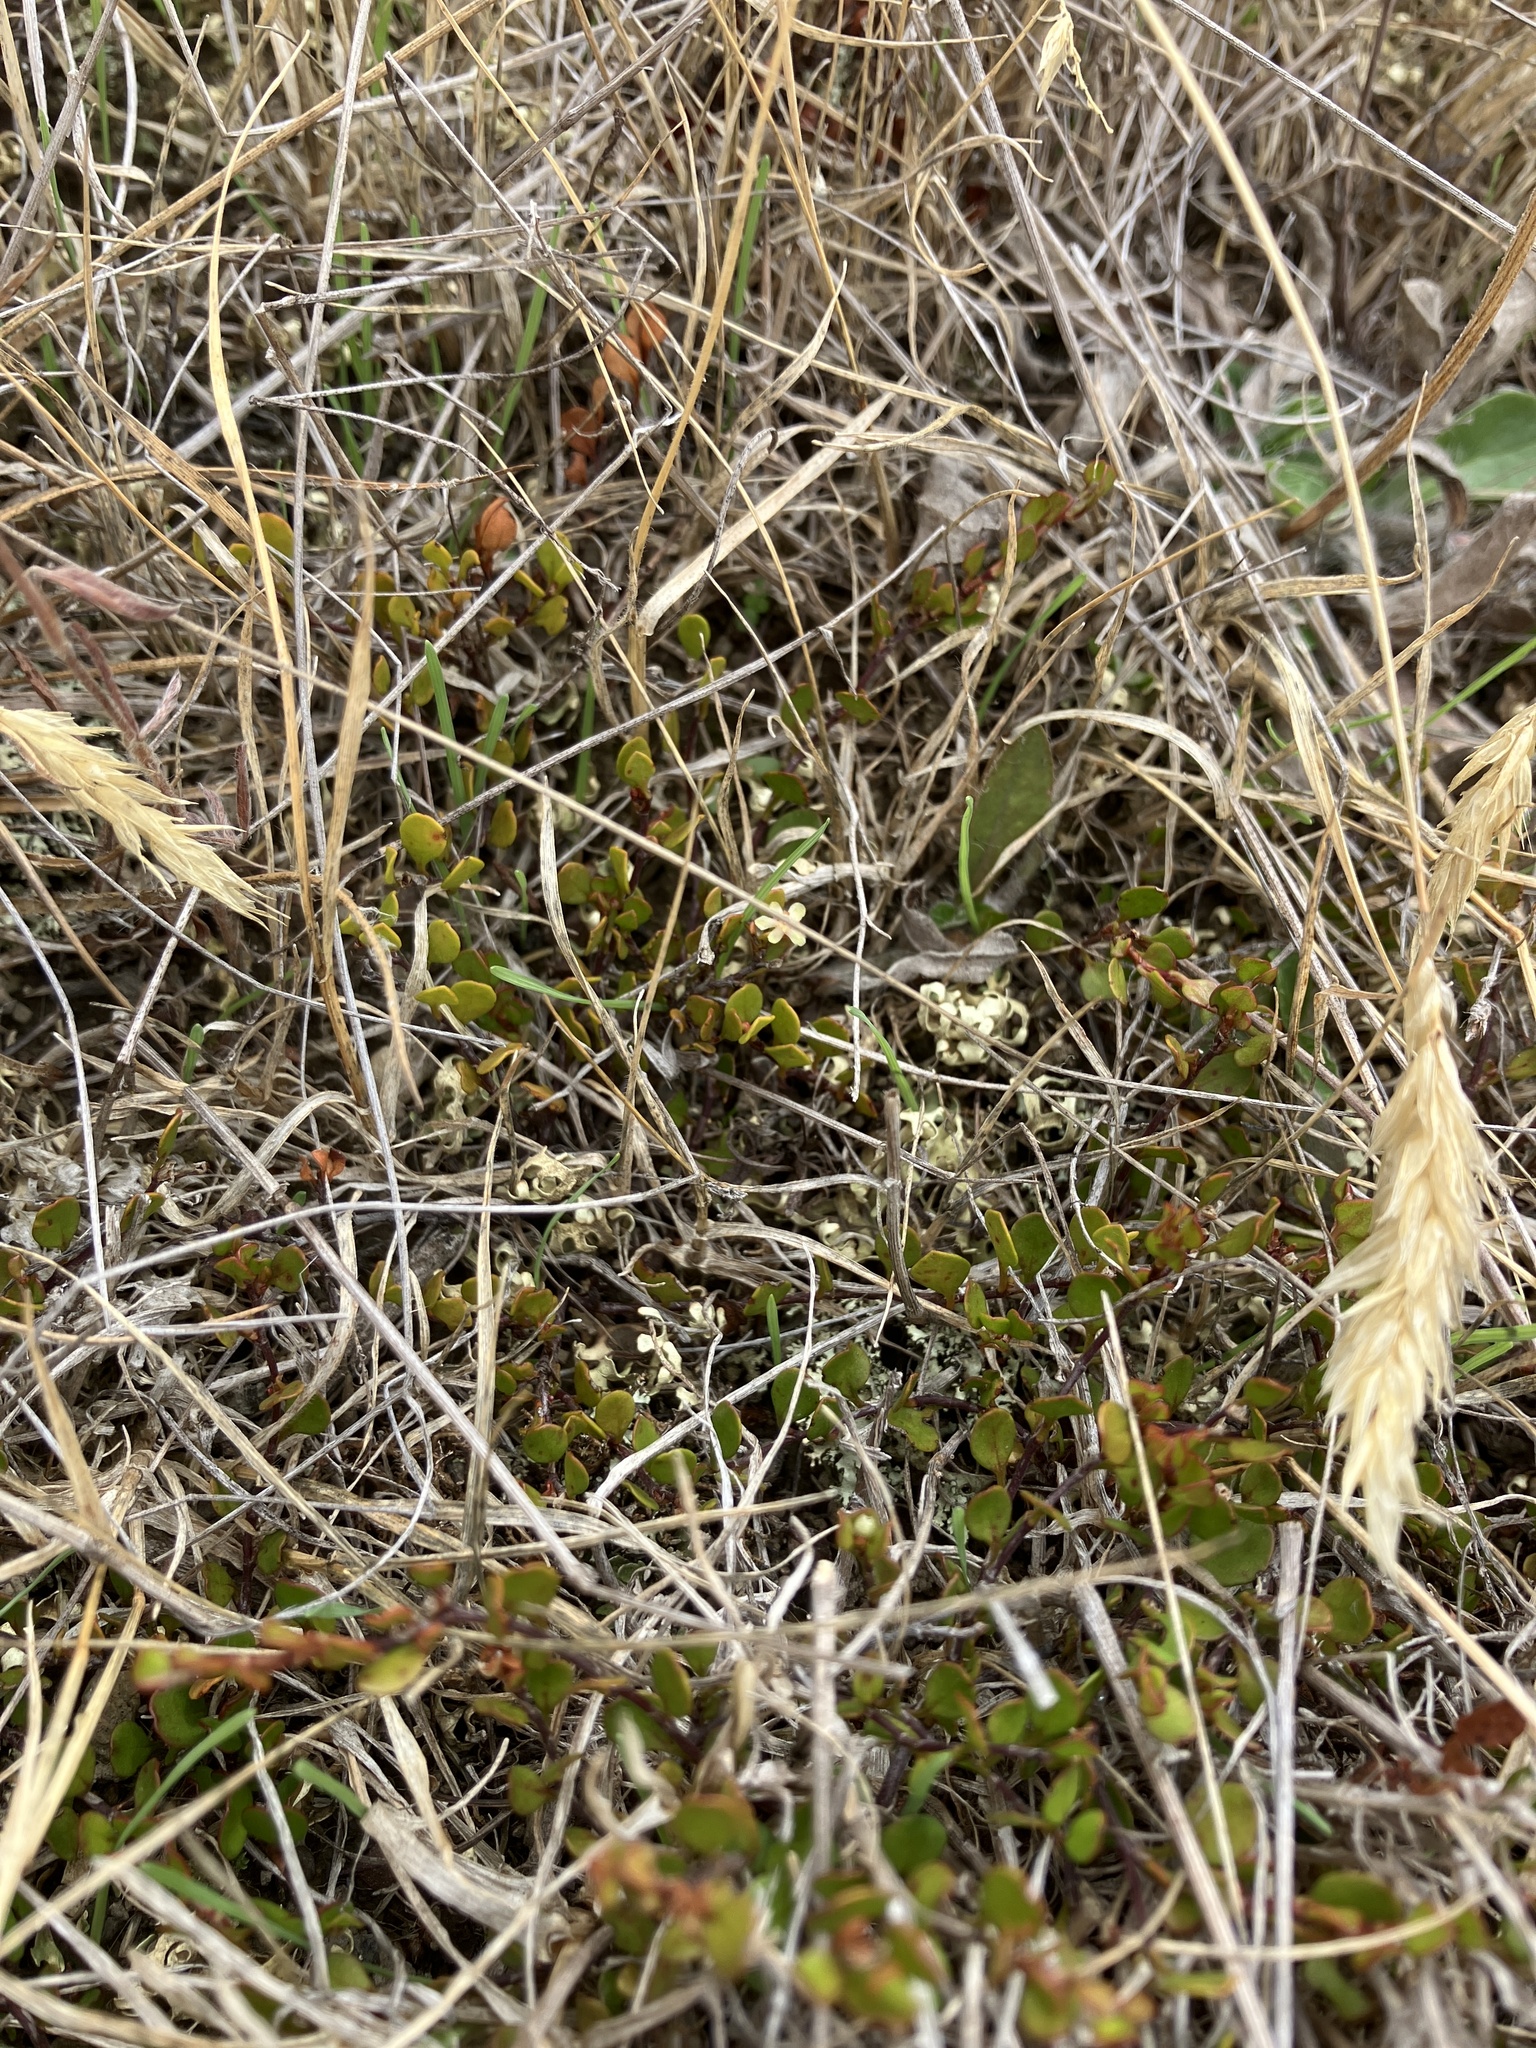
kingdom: Plantae
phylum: Tracheophyta
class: Magnoliopsida
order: Caryophyllales
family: Polygonaceae
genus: Muehlenbeckia
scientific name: Muehlenbeckia axillaris
